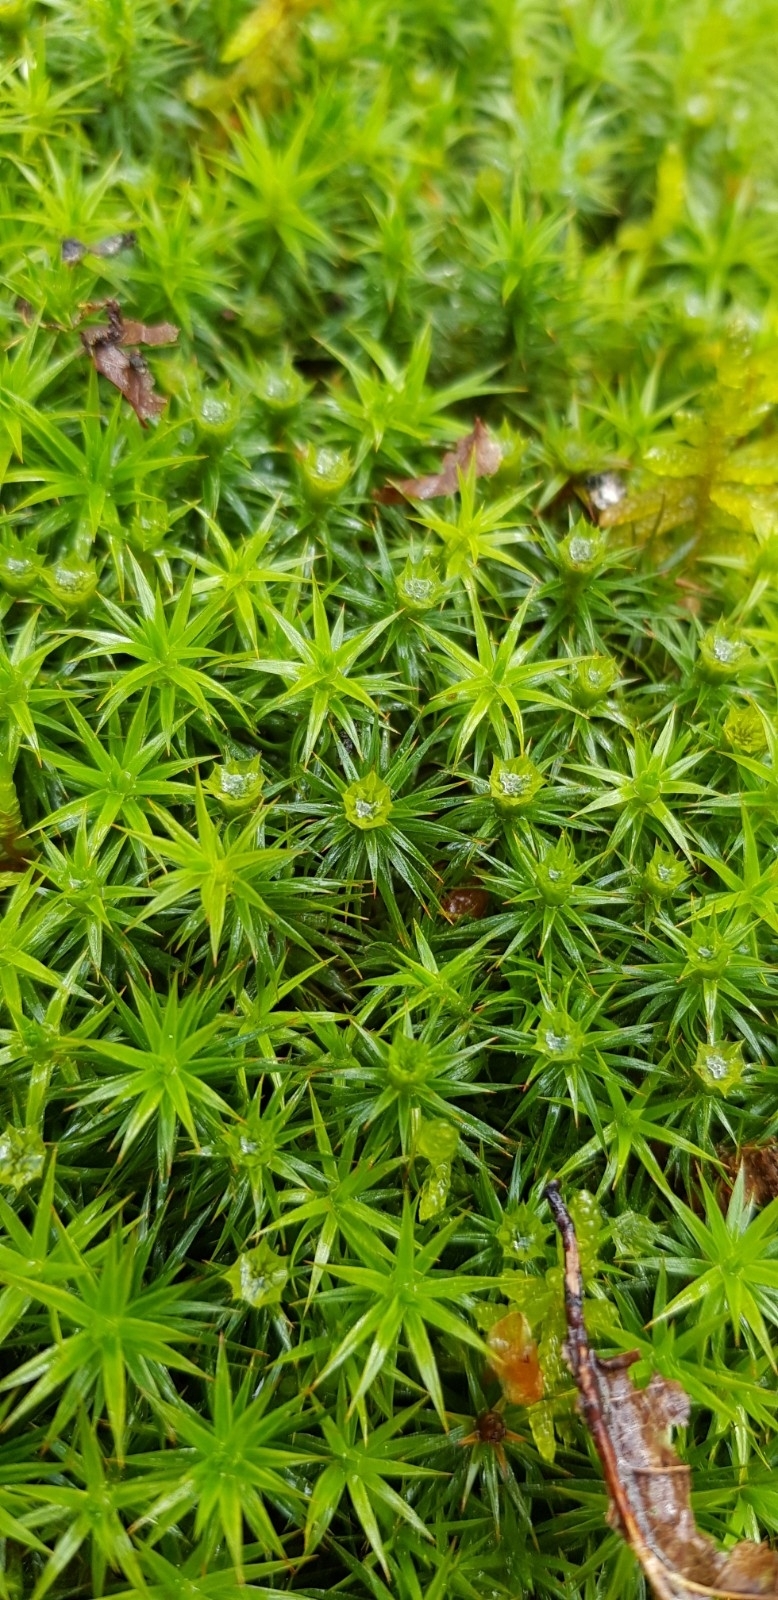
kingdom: Plantae
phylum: Bryophyta
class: Polytrichopsida
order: Polytrichales
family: Polytrichaceae
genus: Polytrichum
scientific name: Polytrichum formosum
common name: Bank haircap moss
